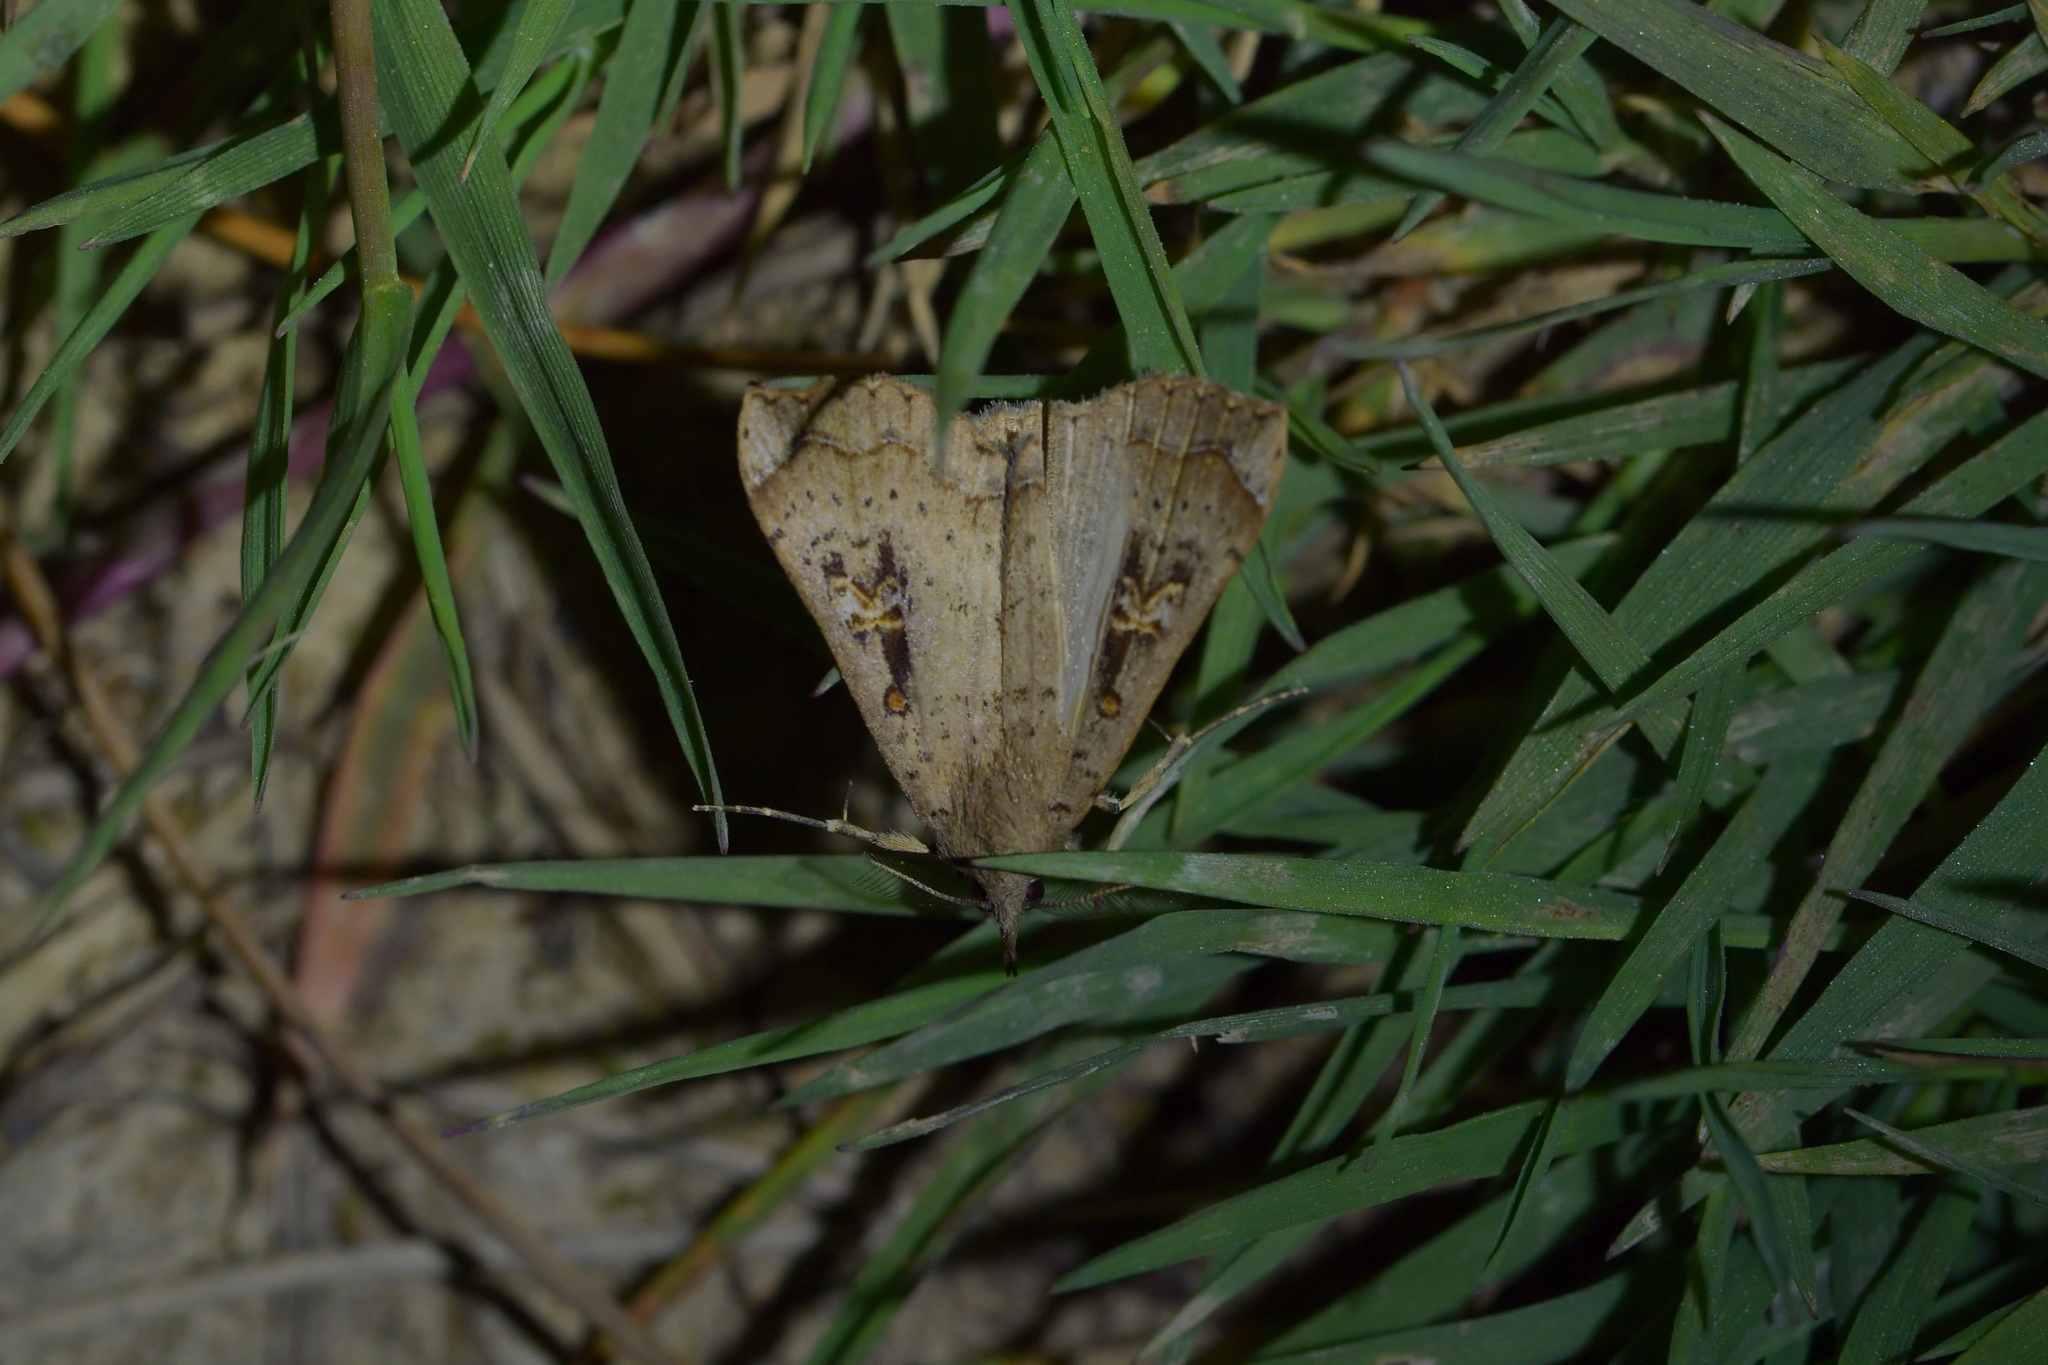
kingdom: Animalia
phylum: Arthropoda
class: Insecta
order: Lepidoptera
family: Erebidae
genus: Rhapsa
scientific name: Rhapsa scotosialis
